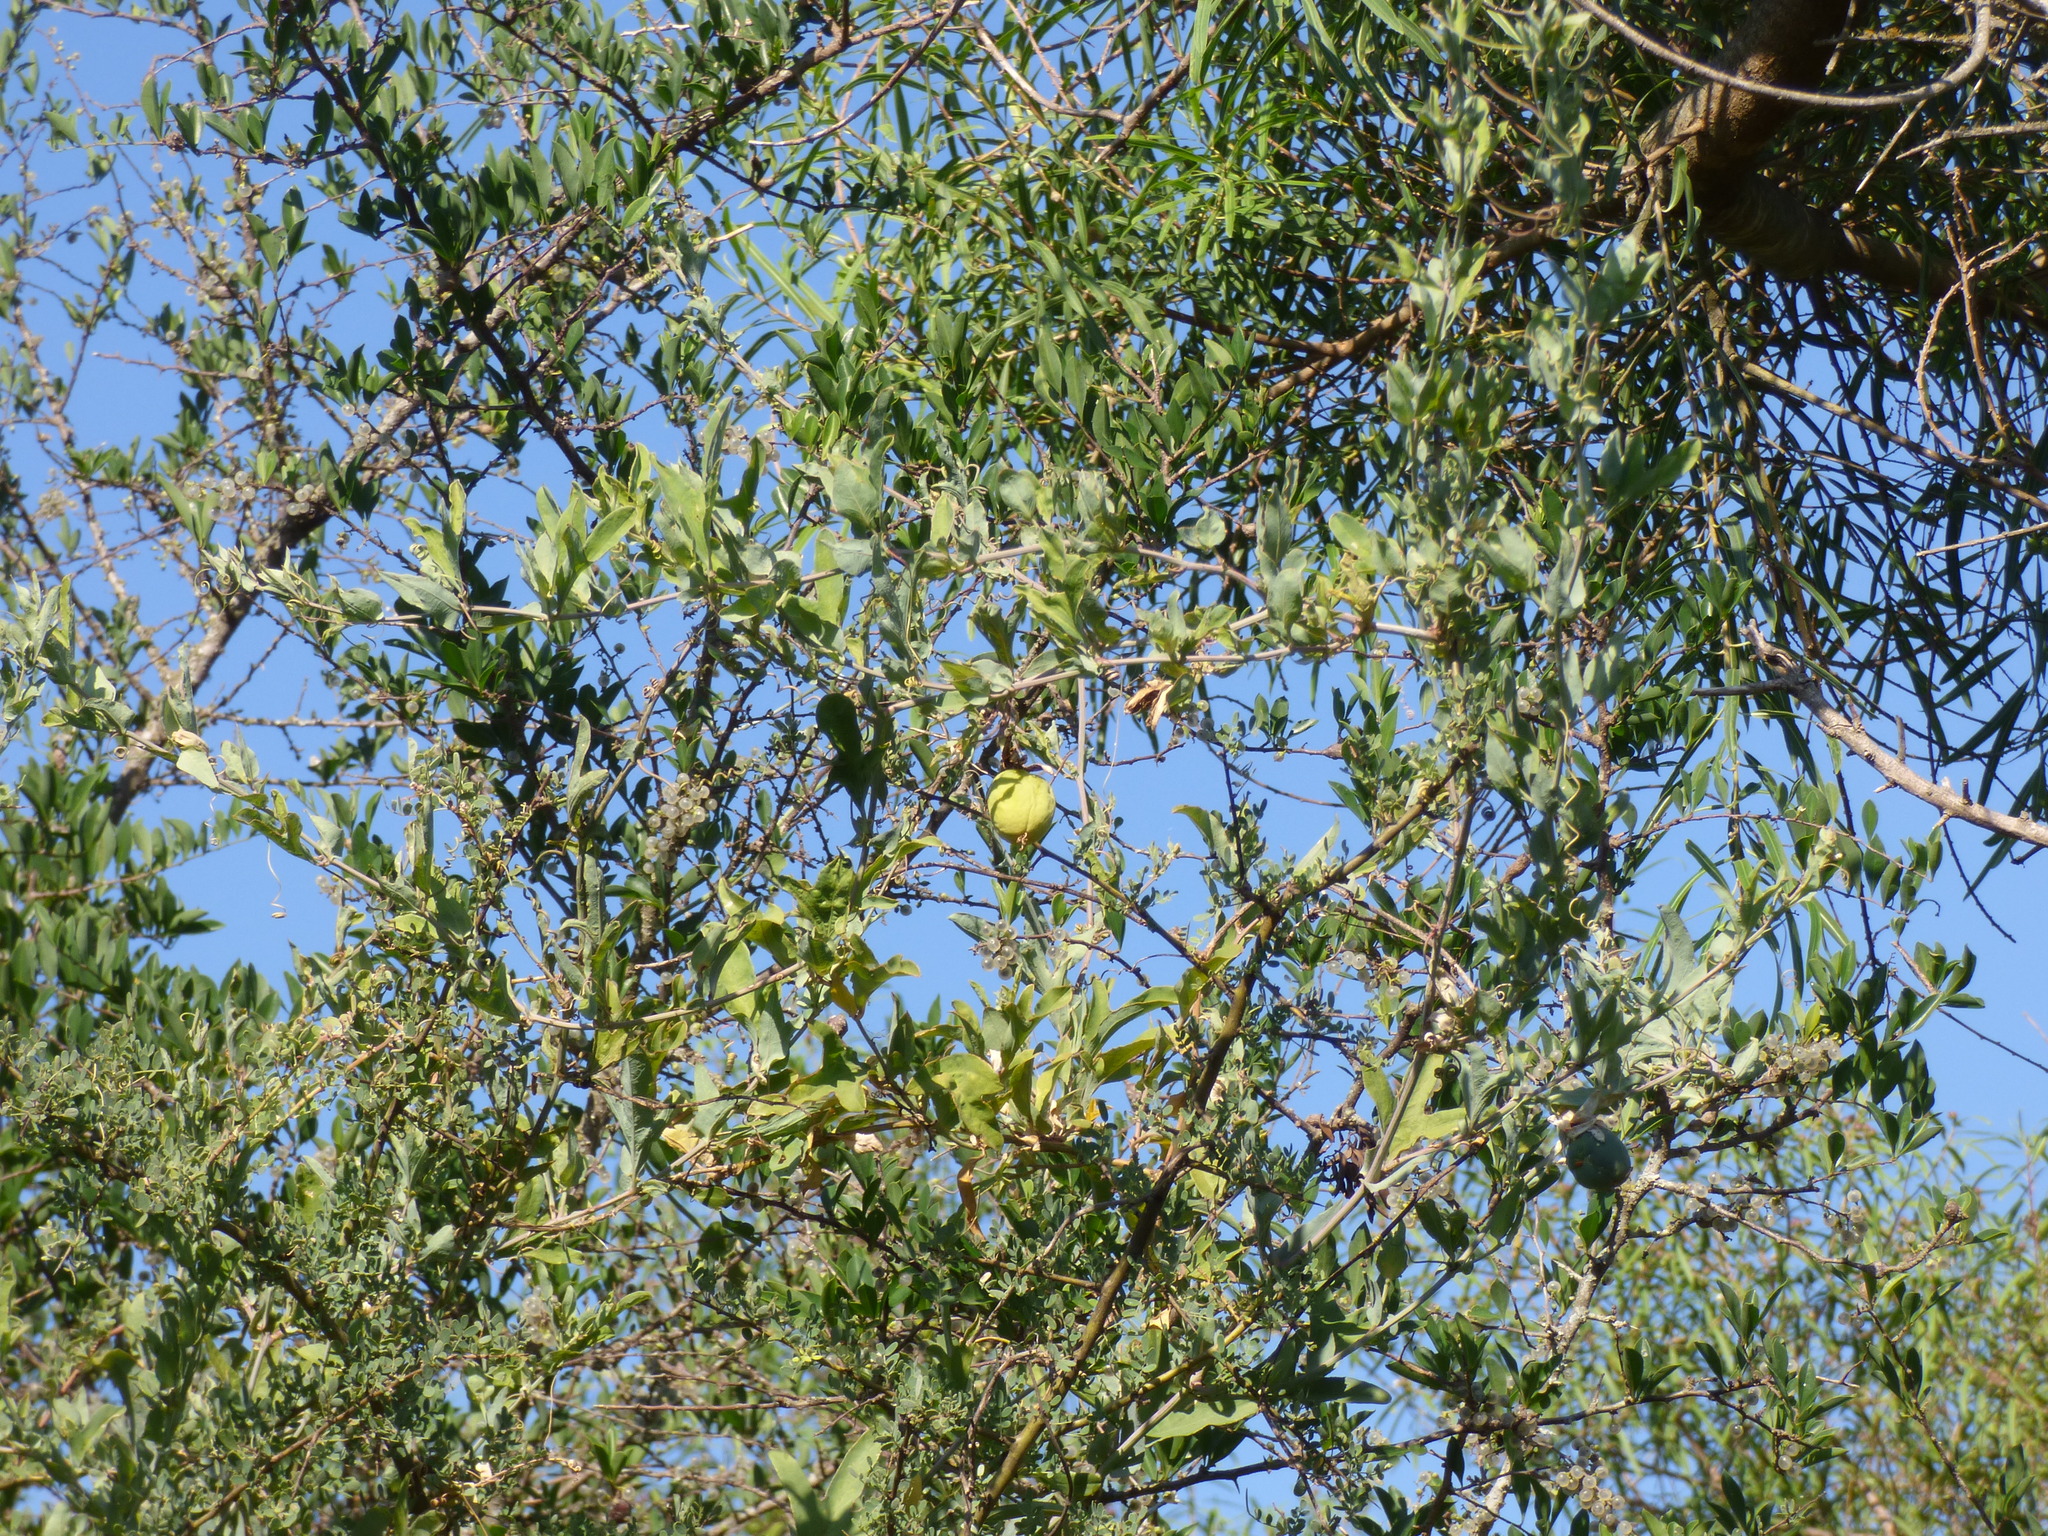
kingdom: Plantae
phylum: Tracheophyta
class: Magnoliopsida
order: Malpighiales
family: Passifloraceae
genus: Passiflora
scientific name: Passiflora mooreana
